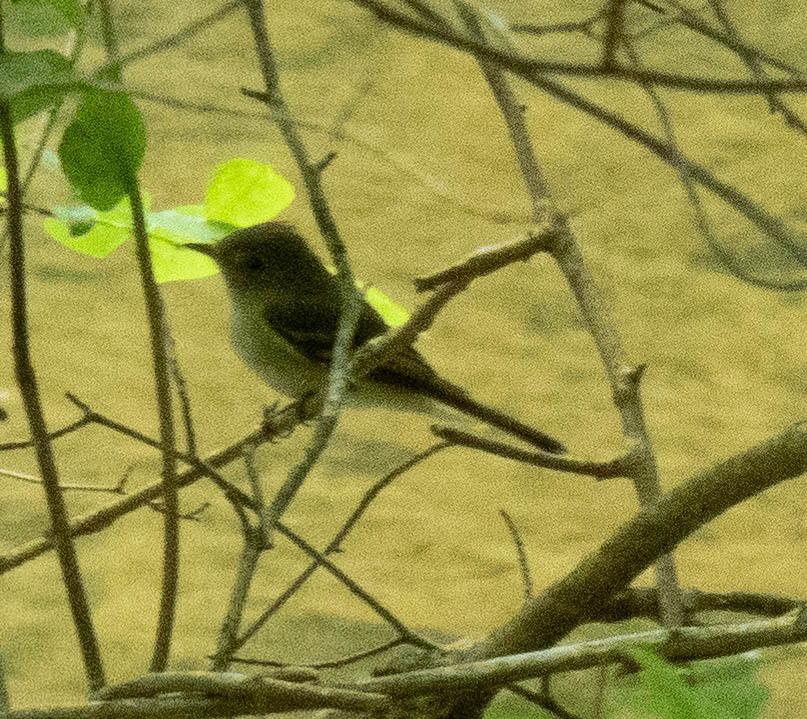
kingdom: Animalia
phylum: Chordata
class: Aves
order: Passeriformes
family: Tyrannidae
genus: Empidonax
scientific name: Empidonax virescens
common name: Acadian flycatcher
